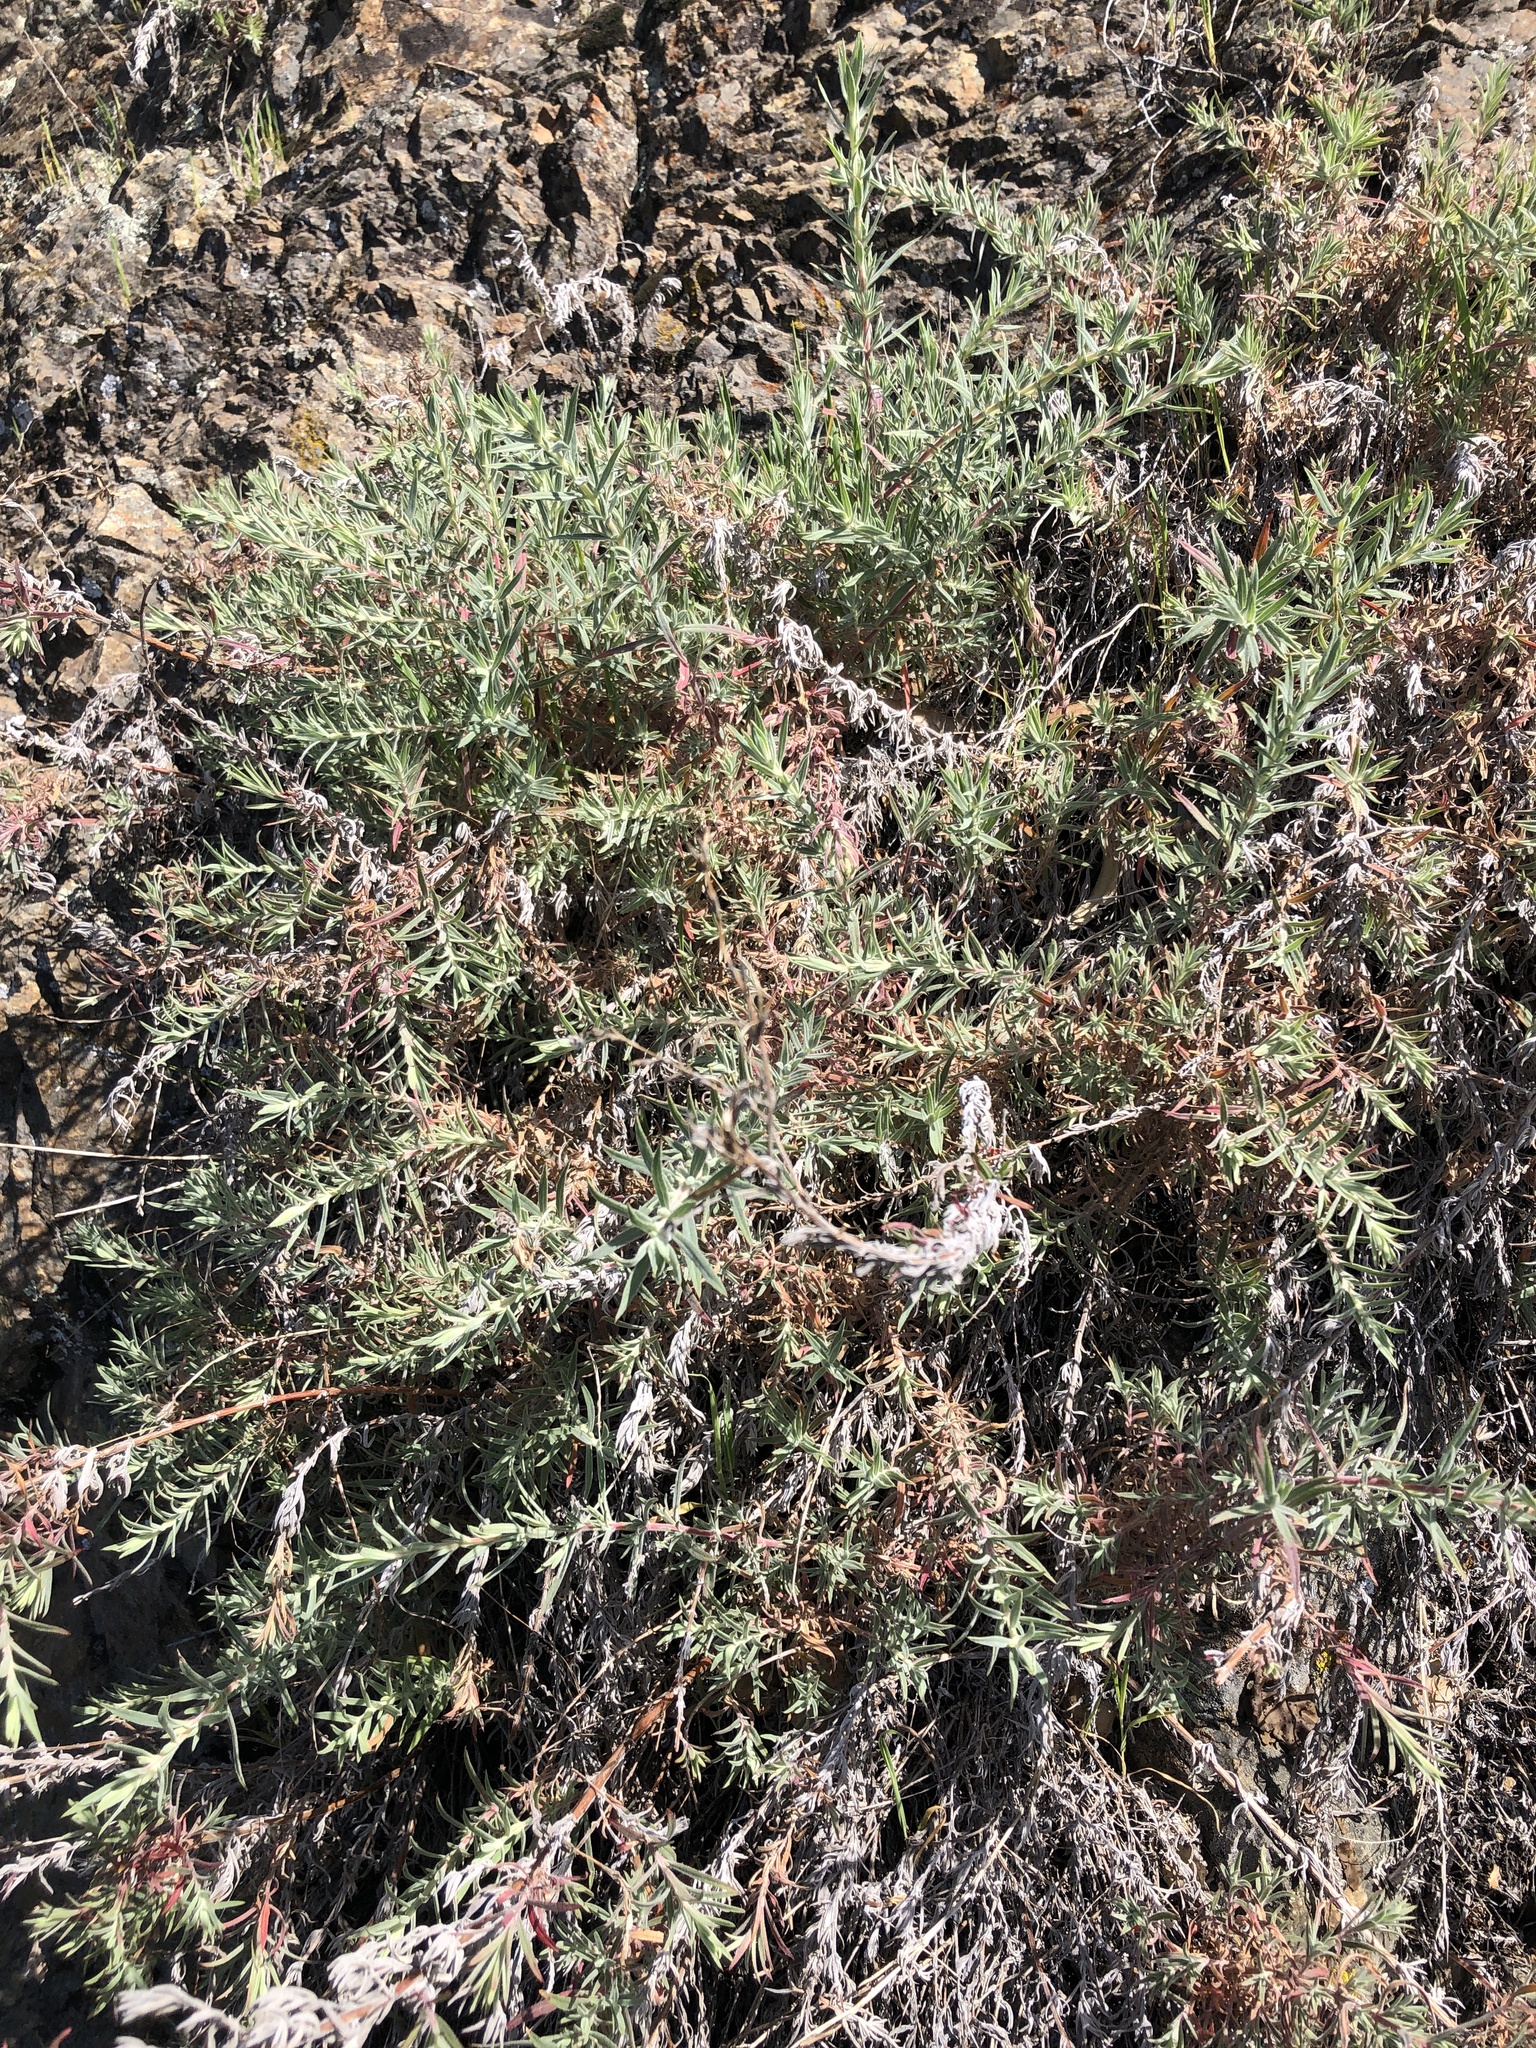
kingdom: Plantae
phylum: Tracheophyta
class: Magnoliopsida
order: Myrtales
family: Onagraceae
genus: Epilobium
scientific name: Epilobium canum
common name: California-fuchsia
